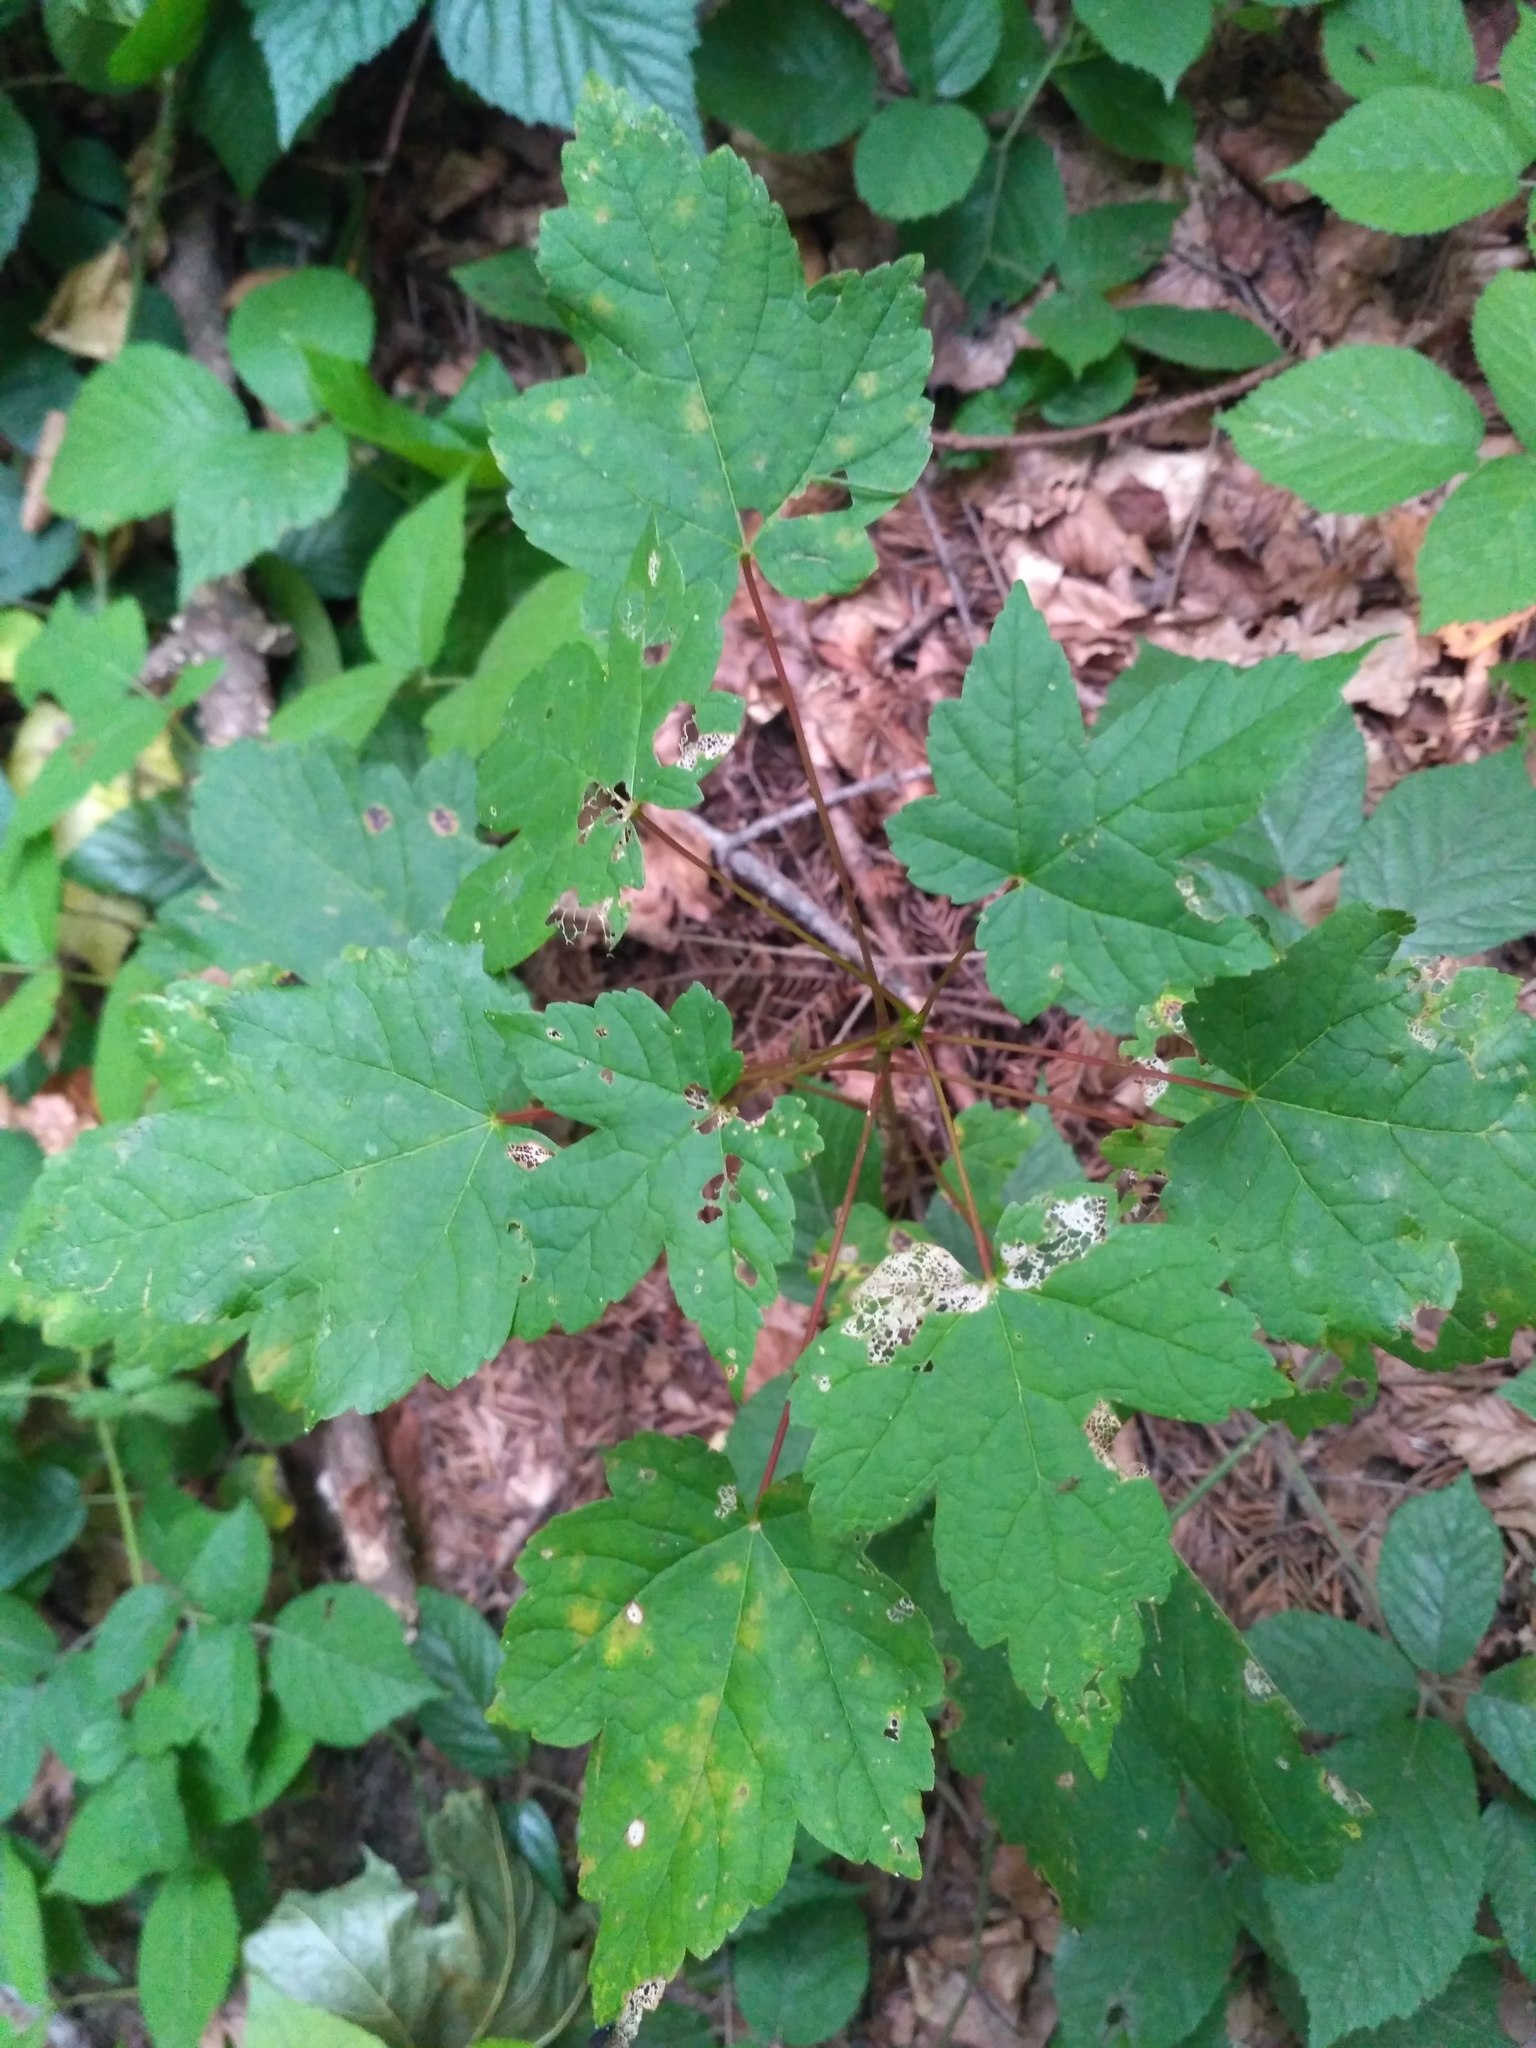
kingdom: Plantae
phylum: Tracheophyta
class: Magnoliopsida
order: Sapindales
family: Sapindaceae
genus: Acer
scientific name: Acer pseudoplatanus
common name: Sycamore
